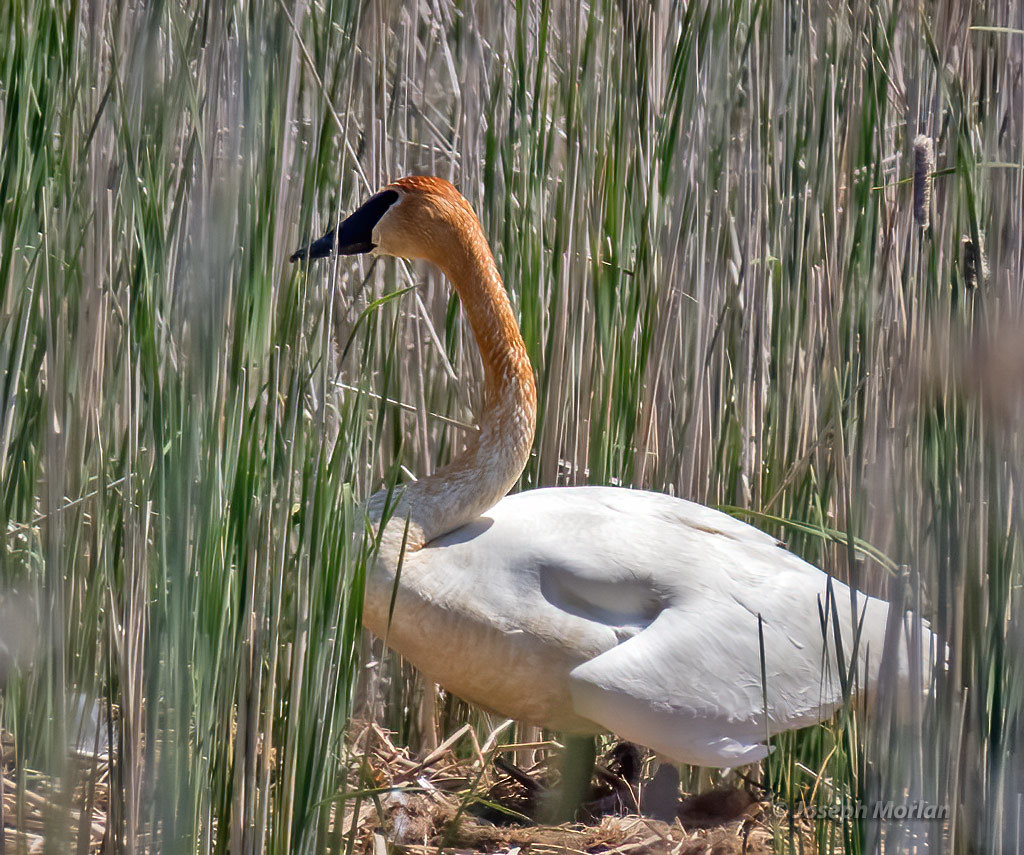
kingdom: Animalia
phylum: Chordata
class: Aves
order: Anseriformes
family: Anatidae
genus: Cygnus
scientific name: Cygnus buccinator
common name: Trumpeter swan
